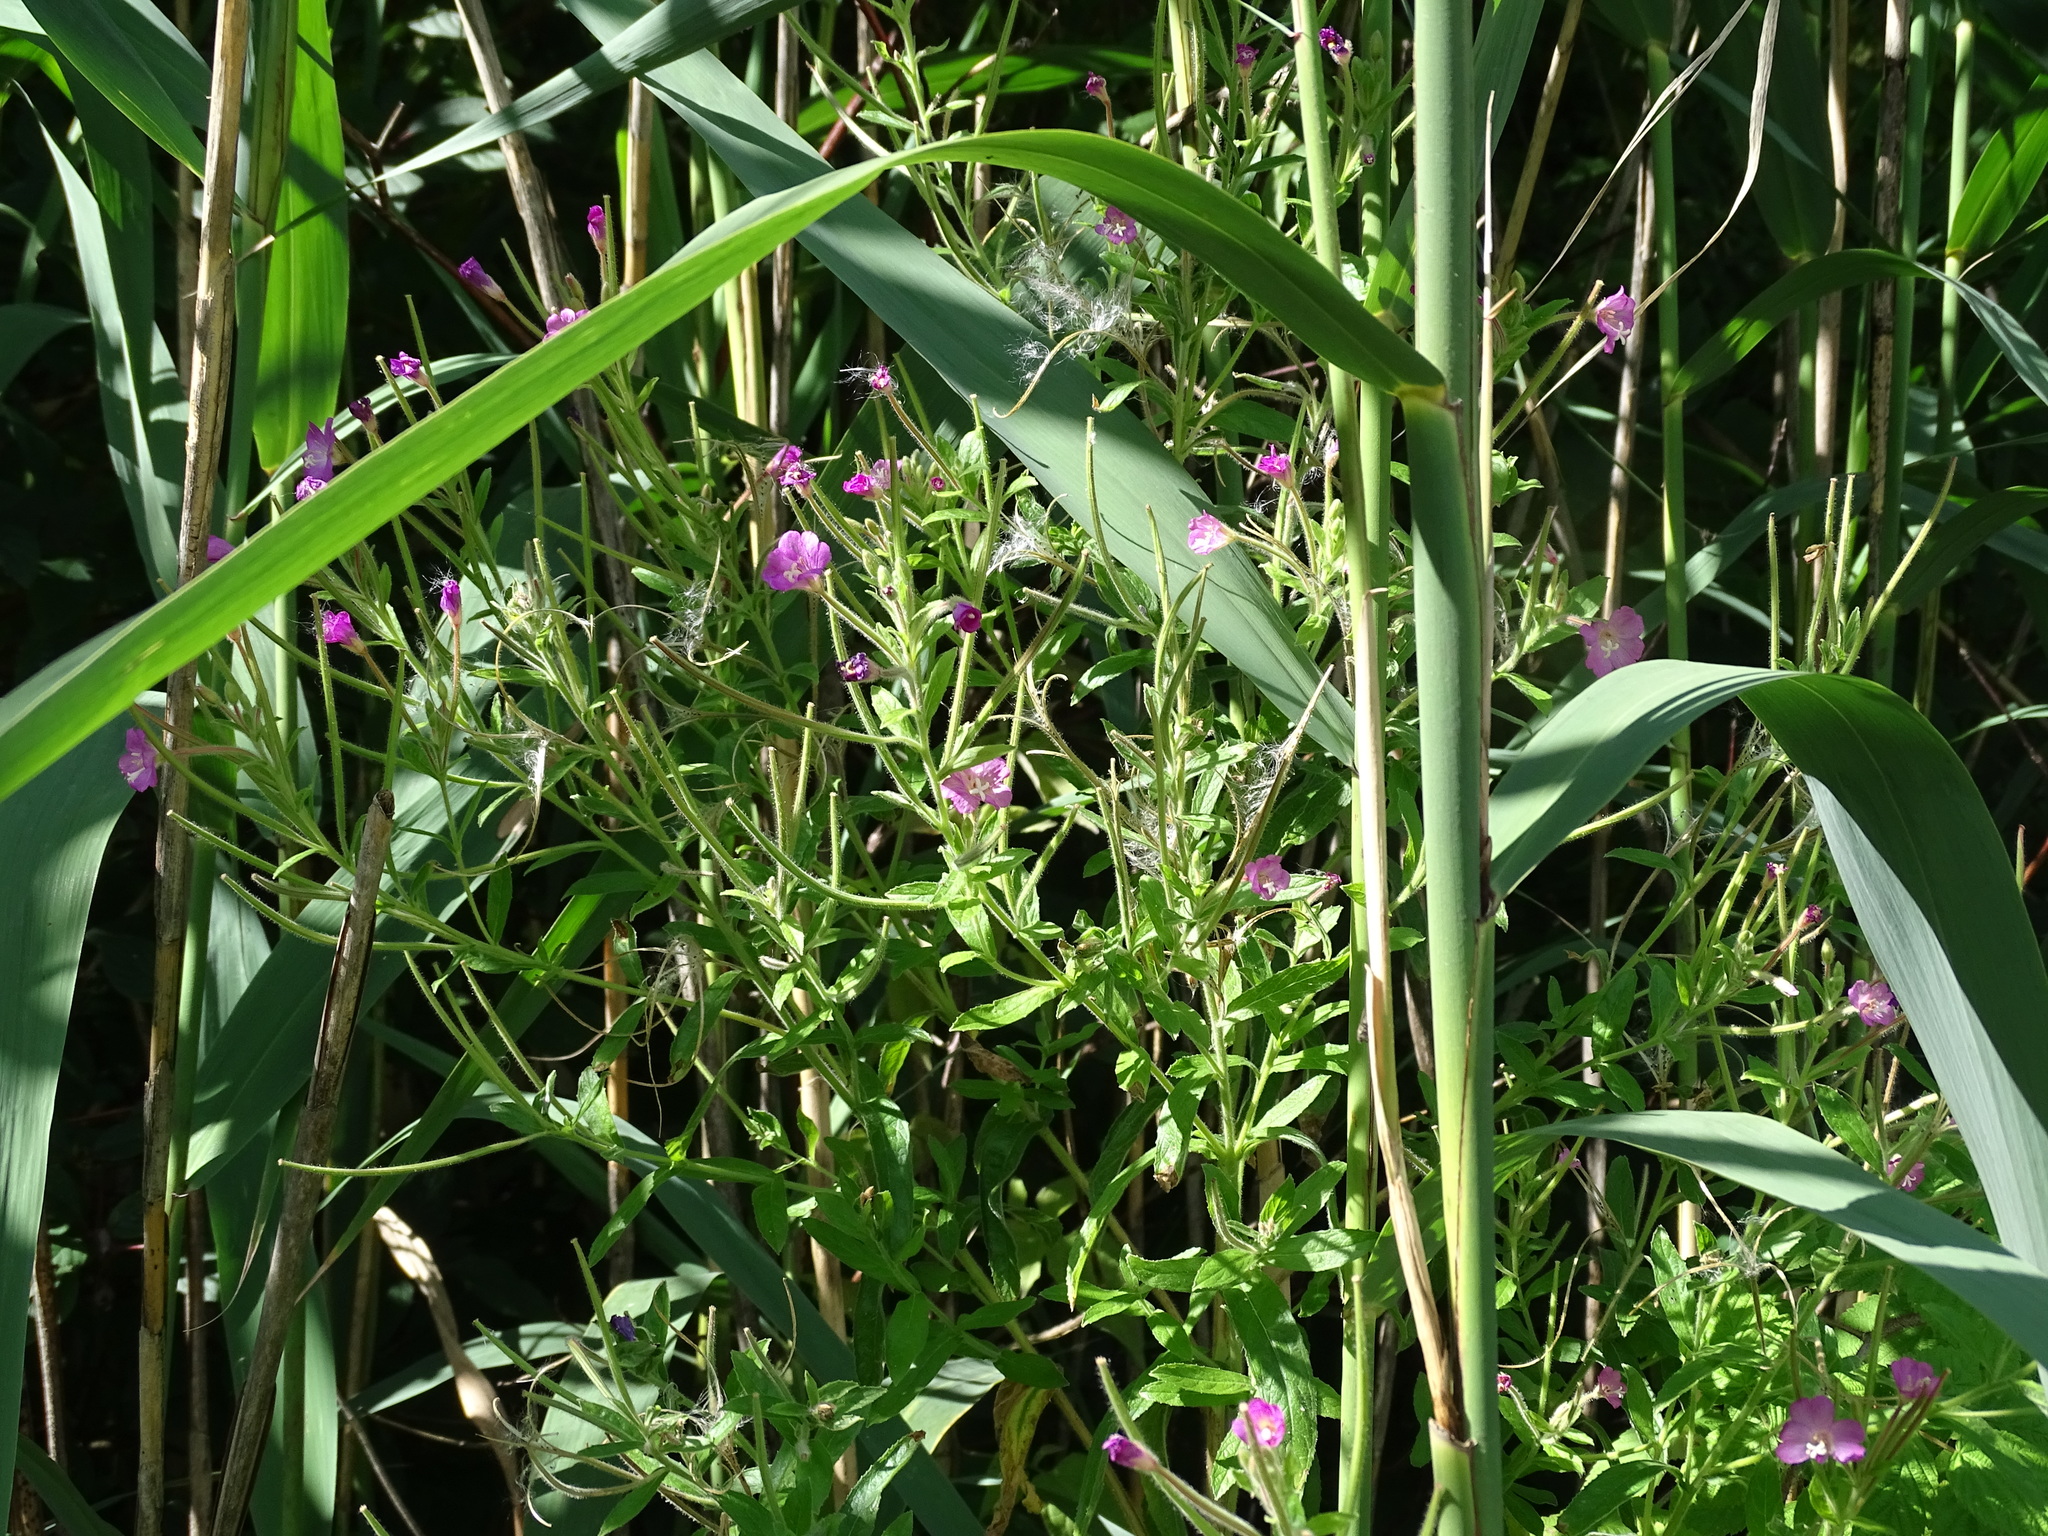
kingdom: Plantae
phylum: Tracheophyta
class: Magnoliopsida
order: Myrtales
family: Onagraceae
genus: Epilobium
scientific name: Epilobium hirsutum
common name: Great willowherb
